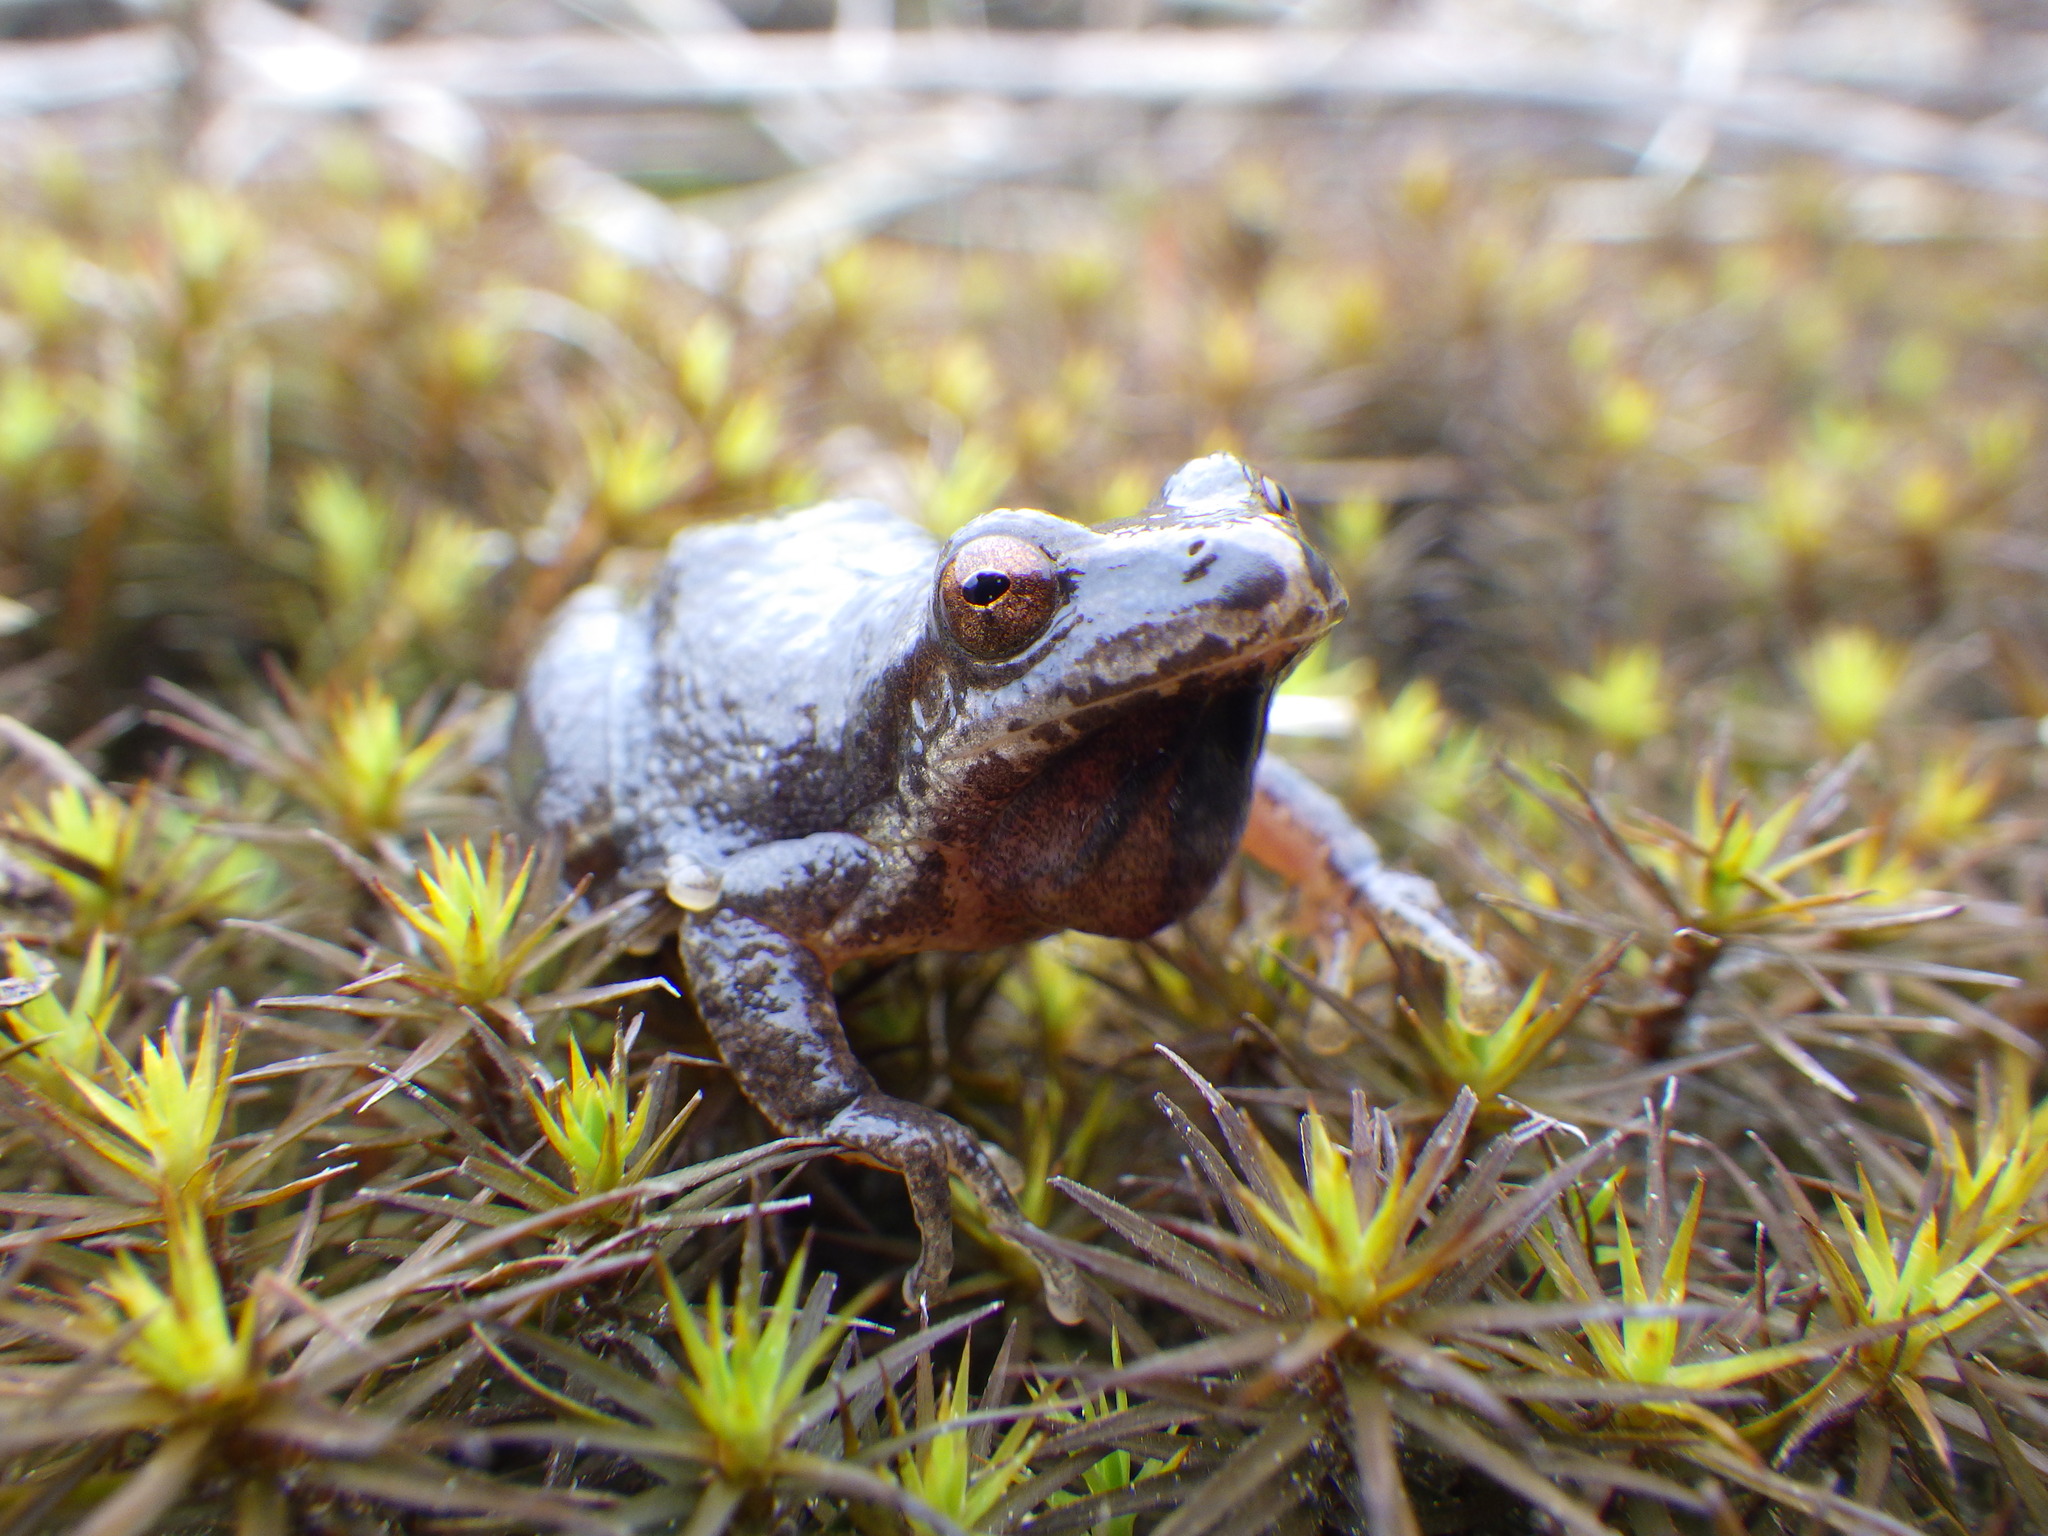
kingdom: Animalia
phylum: Chordata
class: Amphibia
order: Anura
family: Hylidae
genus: Pseudacris
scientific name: Pseudacris crucifer
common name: Spring peeper
